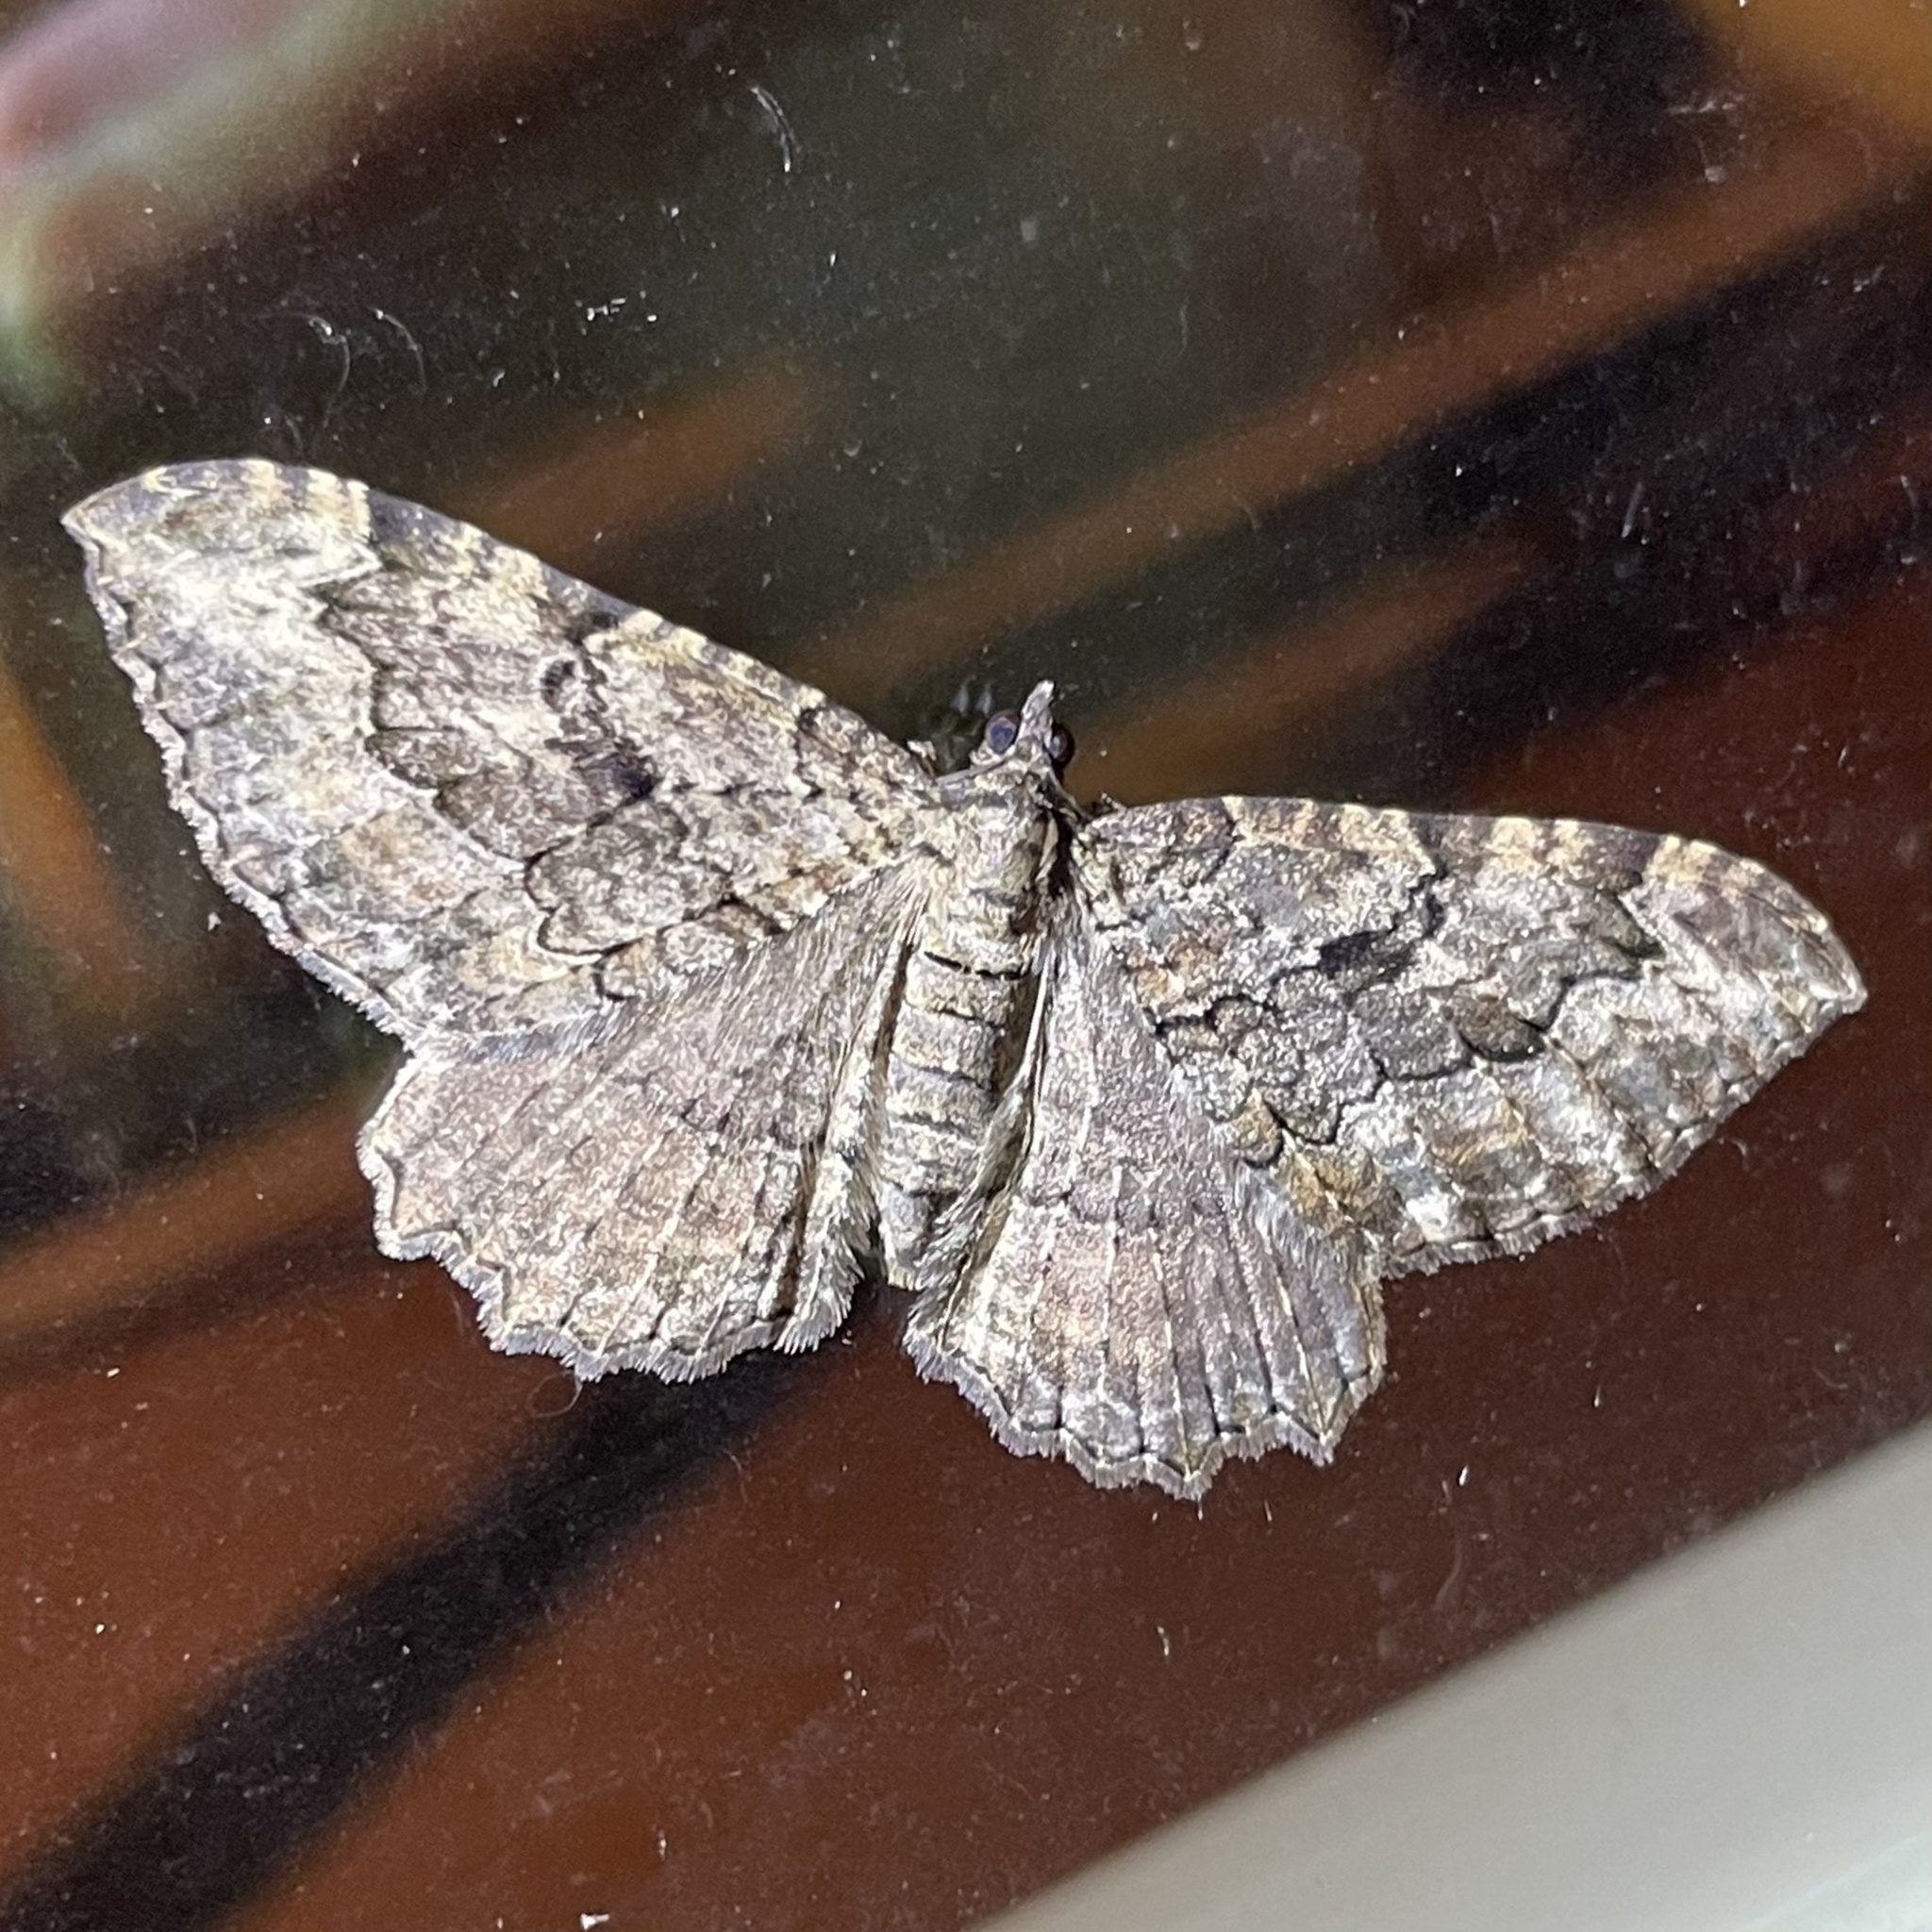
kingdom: Animalia
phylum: Arthropoda
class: Insecta
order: Lepidoptera
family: Geometridae
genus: Rheumaptera
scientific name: Rheumaptera
